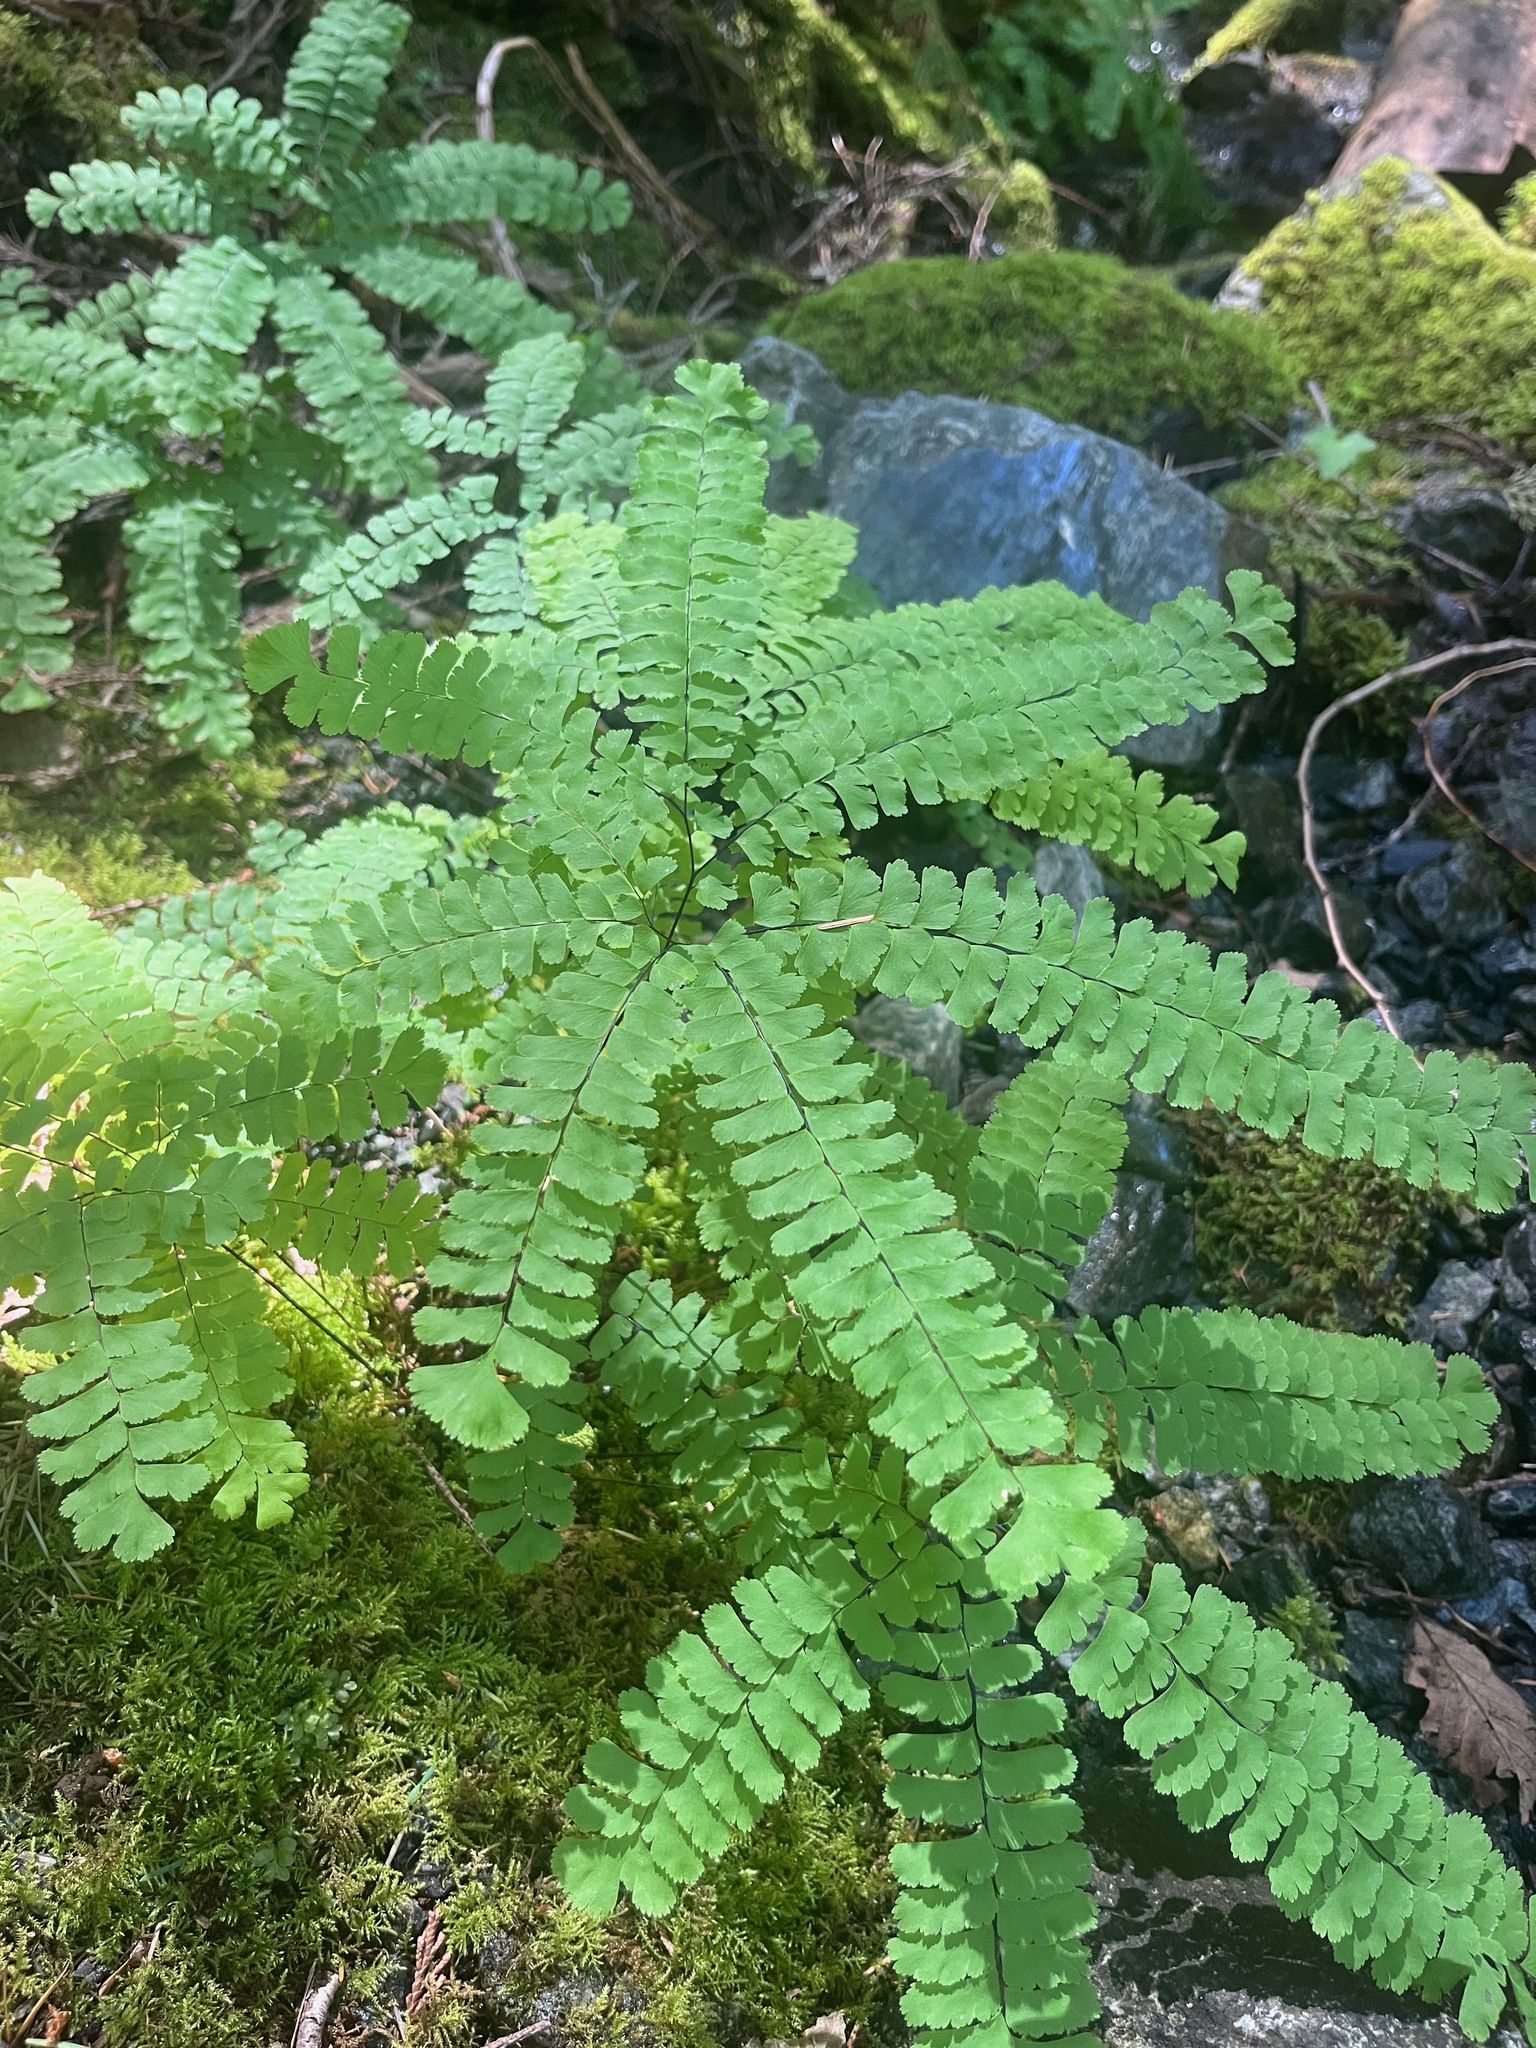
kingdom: Plantae
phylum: Tracheophyta
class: Polypodiopsida
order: Polypodiales
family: Pteridaceae
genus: Adiantum
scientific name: Adiantum aleuticum
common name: Aleutian maidenhair fern
